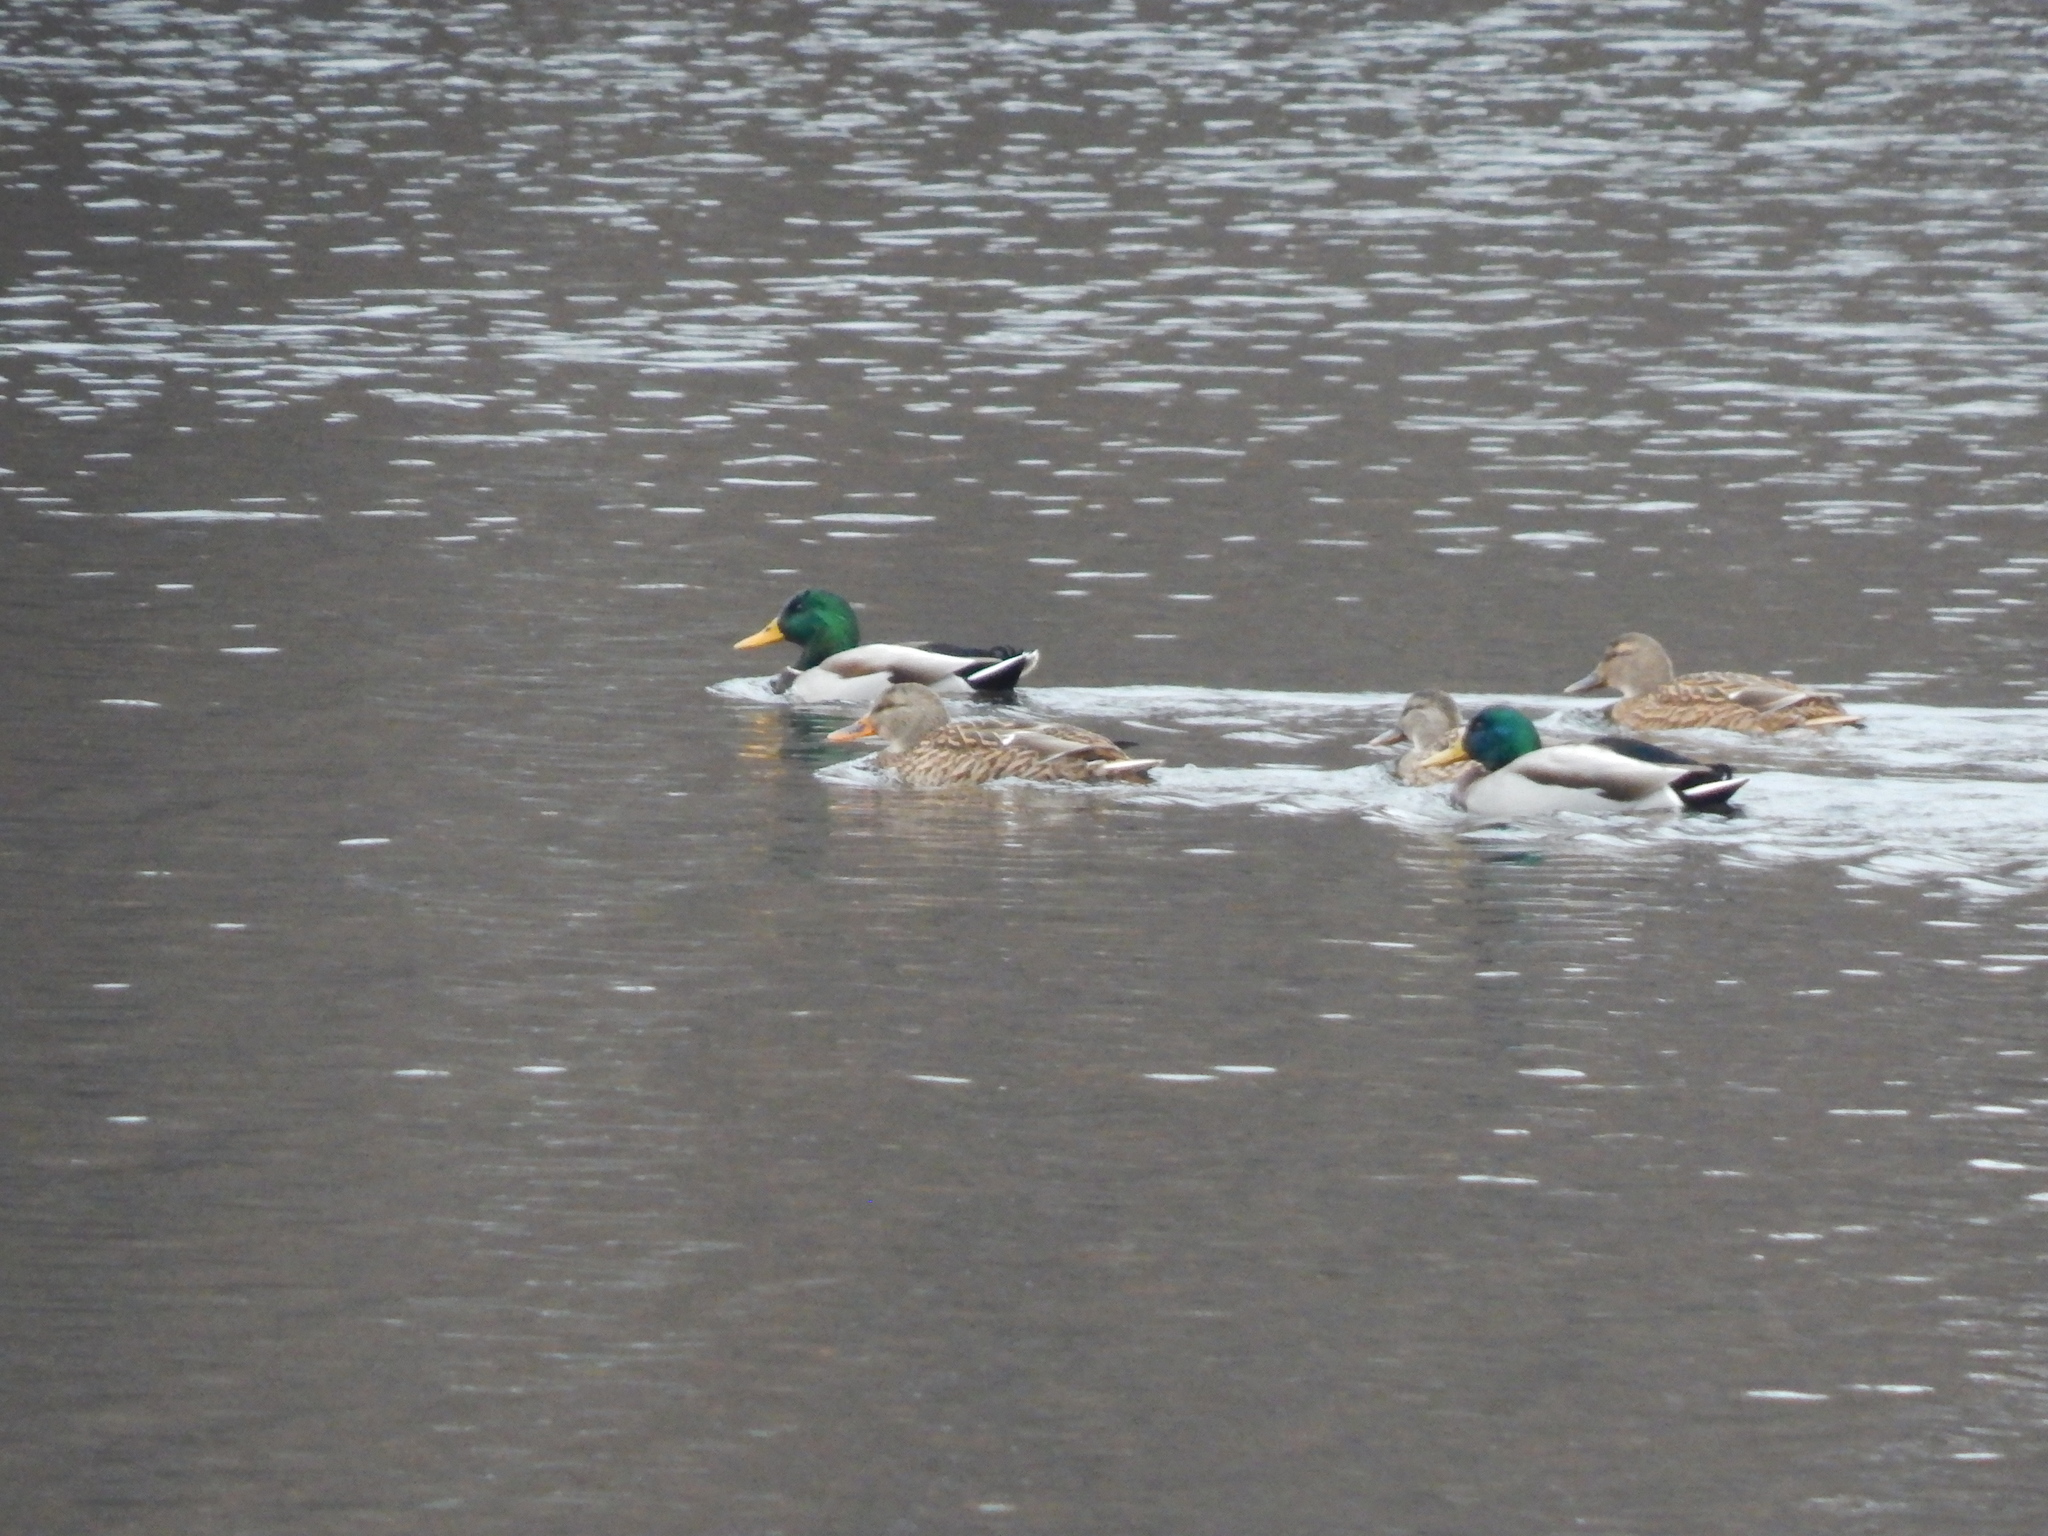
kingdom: Animalia
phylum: Chordata
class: Aves
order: Anseriformes
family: Anatidae
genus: Anas
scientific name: Anas platyrhynchos
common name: Mallard
